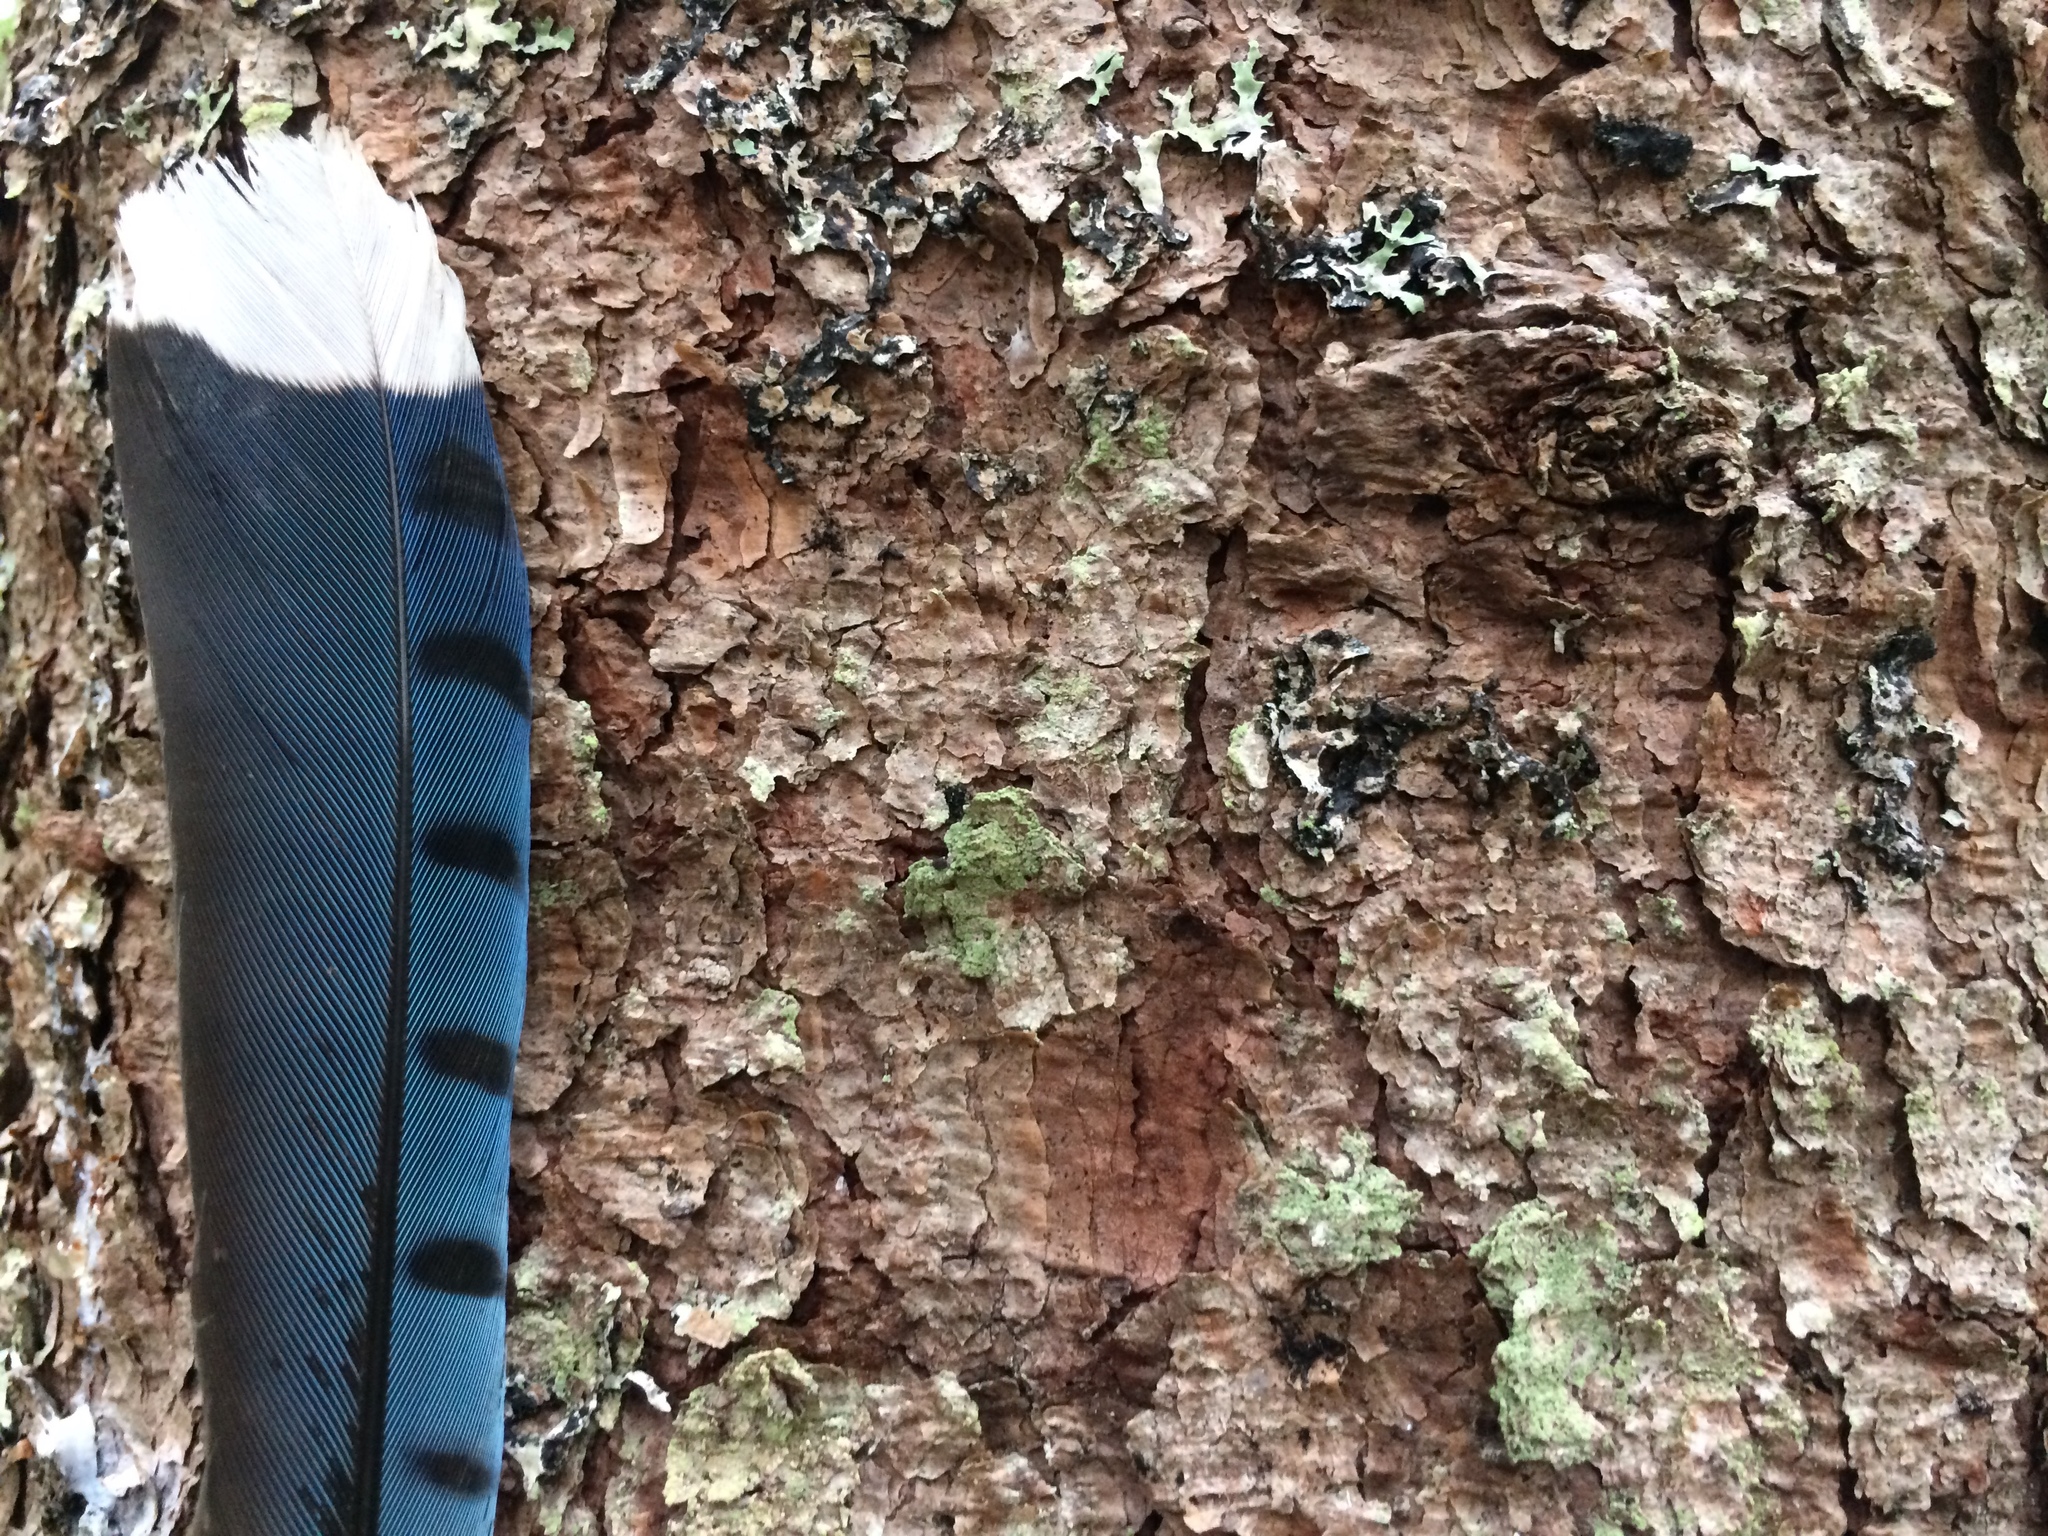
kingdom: Animalia
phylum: Chordata
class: Aves
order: Passeriformes
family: Corvidae
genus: Cyanocitta
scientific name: Cyanocitta cristata
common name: Blue jay
